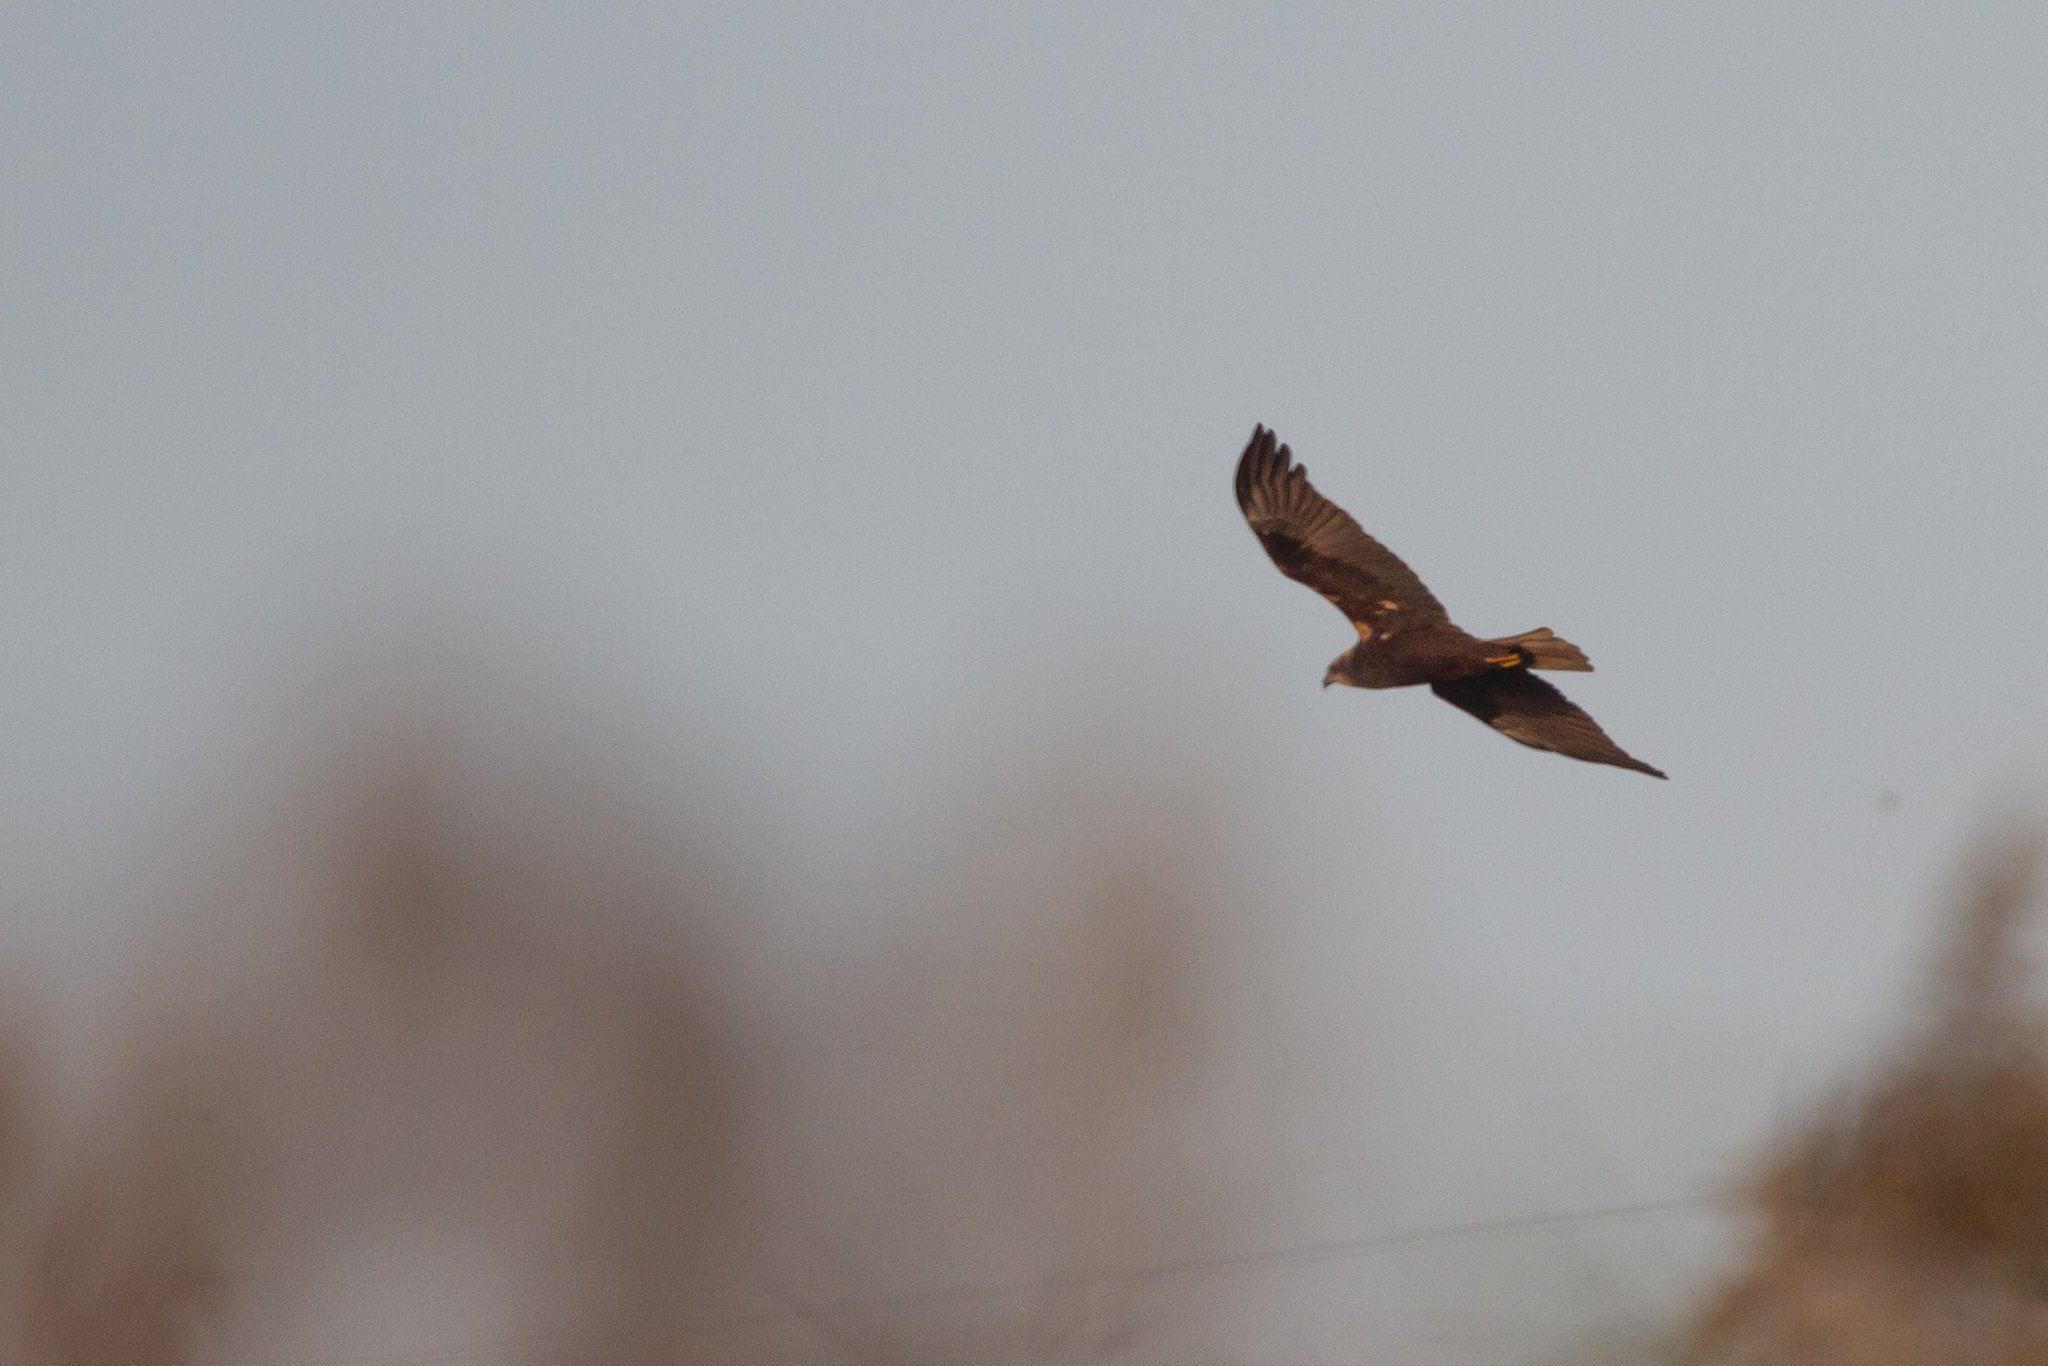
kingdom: Animalia
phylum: Chordata
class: Aves
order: Accipitriformes
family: Accipitridae
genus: Circus
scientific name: Circus aeruginosus
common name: Western marsh harrier
